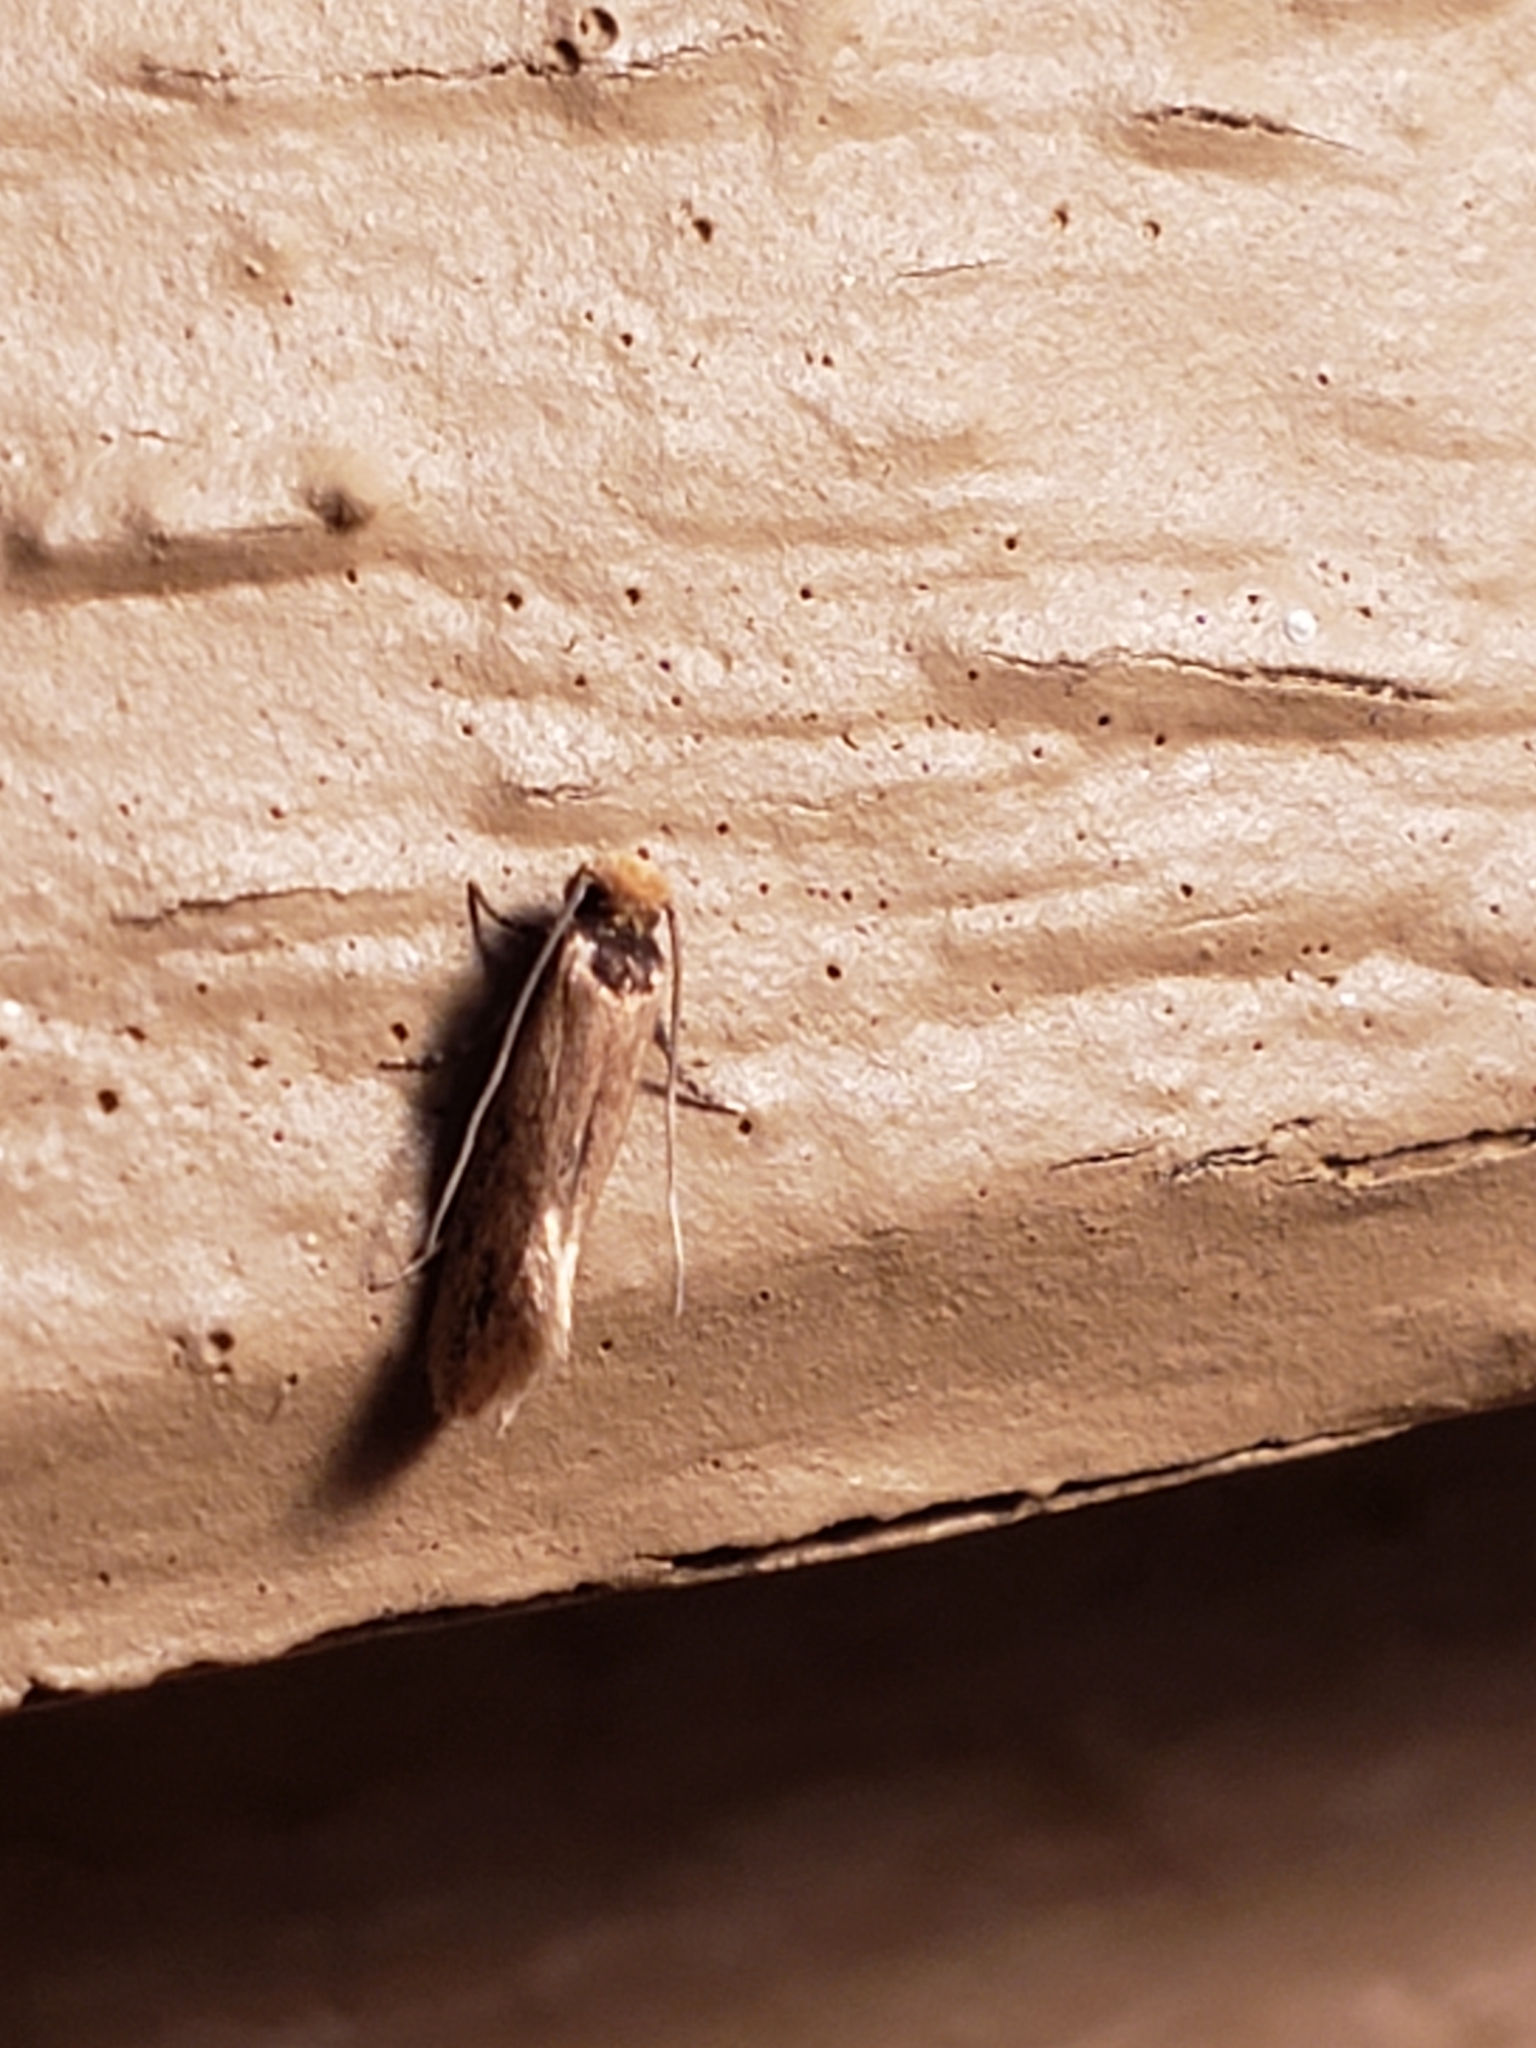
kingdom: Animalia
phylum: Arthropoda
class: Insecta
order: Lepidoptera
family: Meessiidae
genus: Homostinea
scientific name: Homostinea curviliniella
